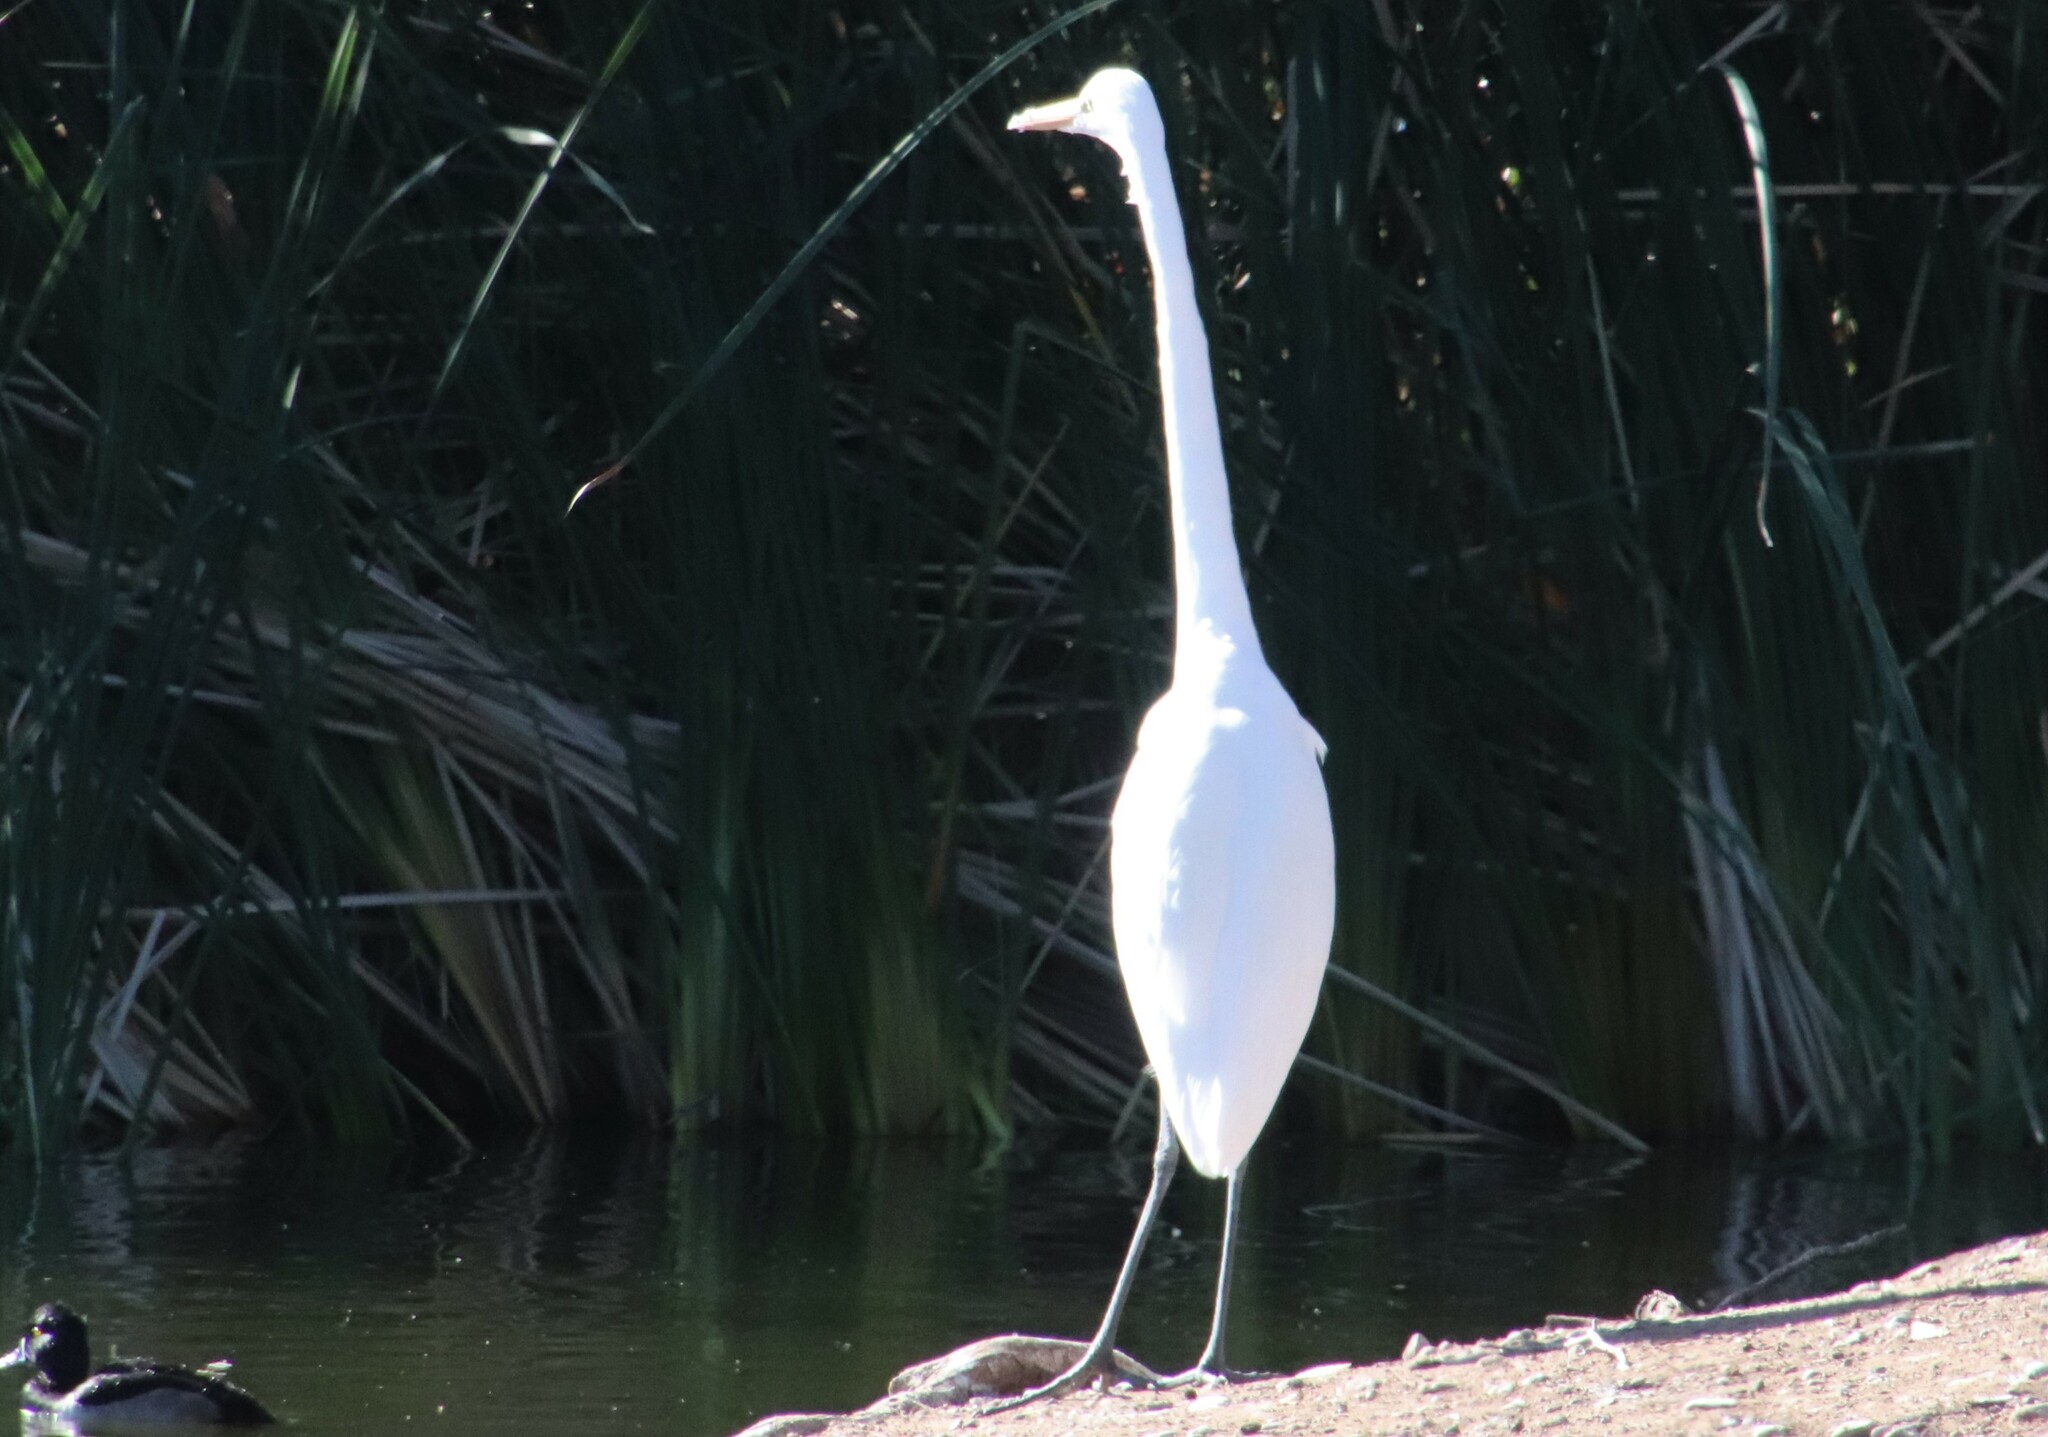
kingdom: Animalia
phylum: Chordata
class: Aves
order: Pelecaniformes
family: Ardeidae
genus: Ardea
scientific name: Ardea alba
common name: Great egret
